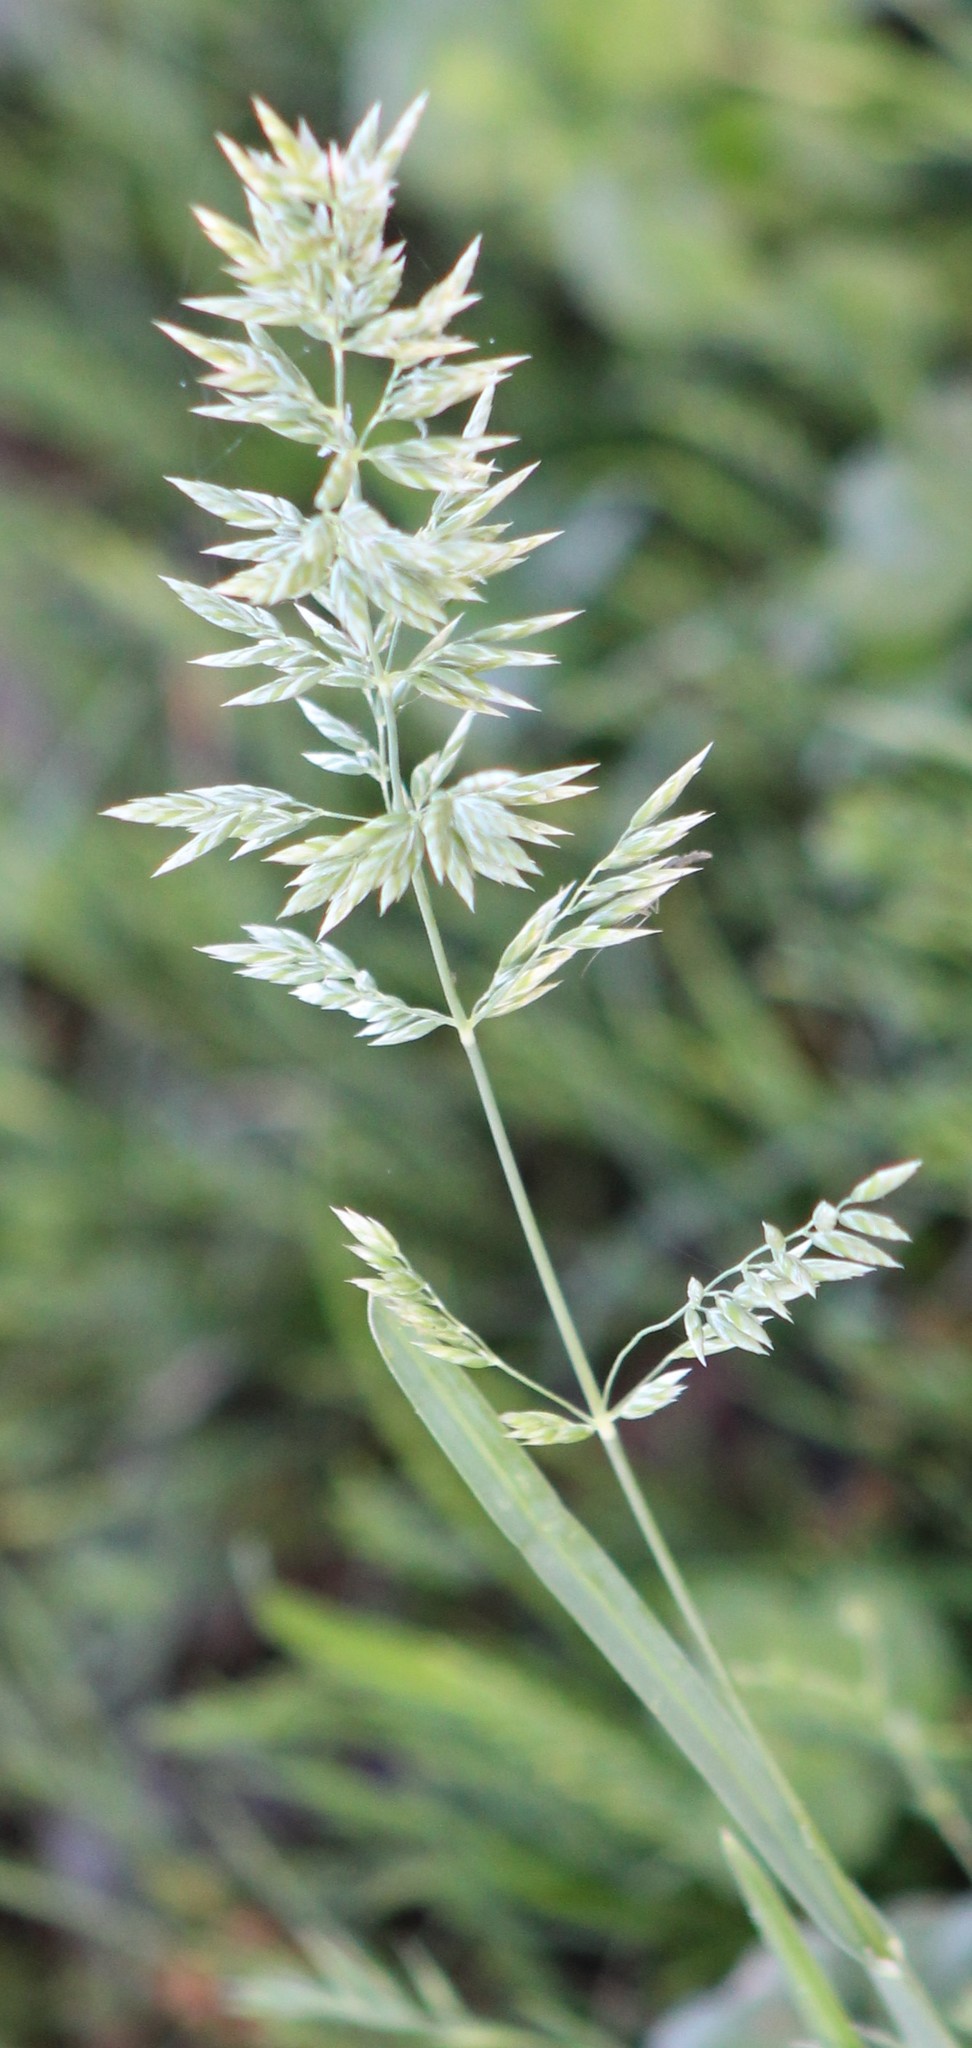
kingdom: Plantae
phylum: Tracheophyta
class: Liliopsida
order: Poales
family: Poaceae
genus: Poa
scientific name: Poa arachnifera
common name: Texas bluegrass
